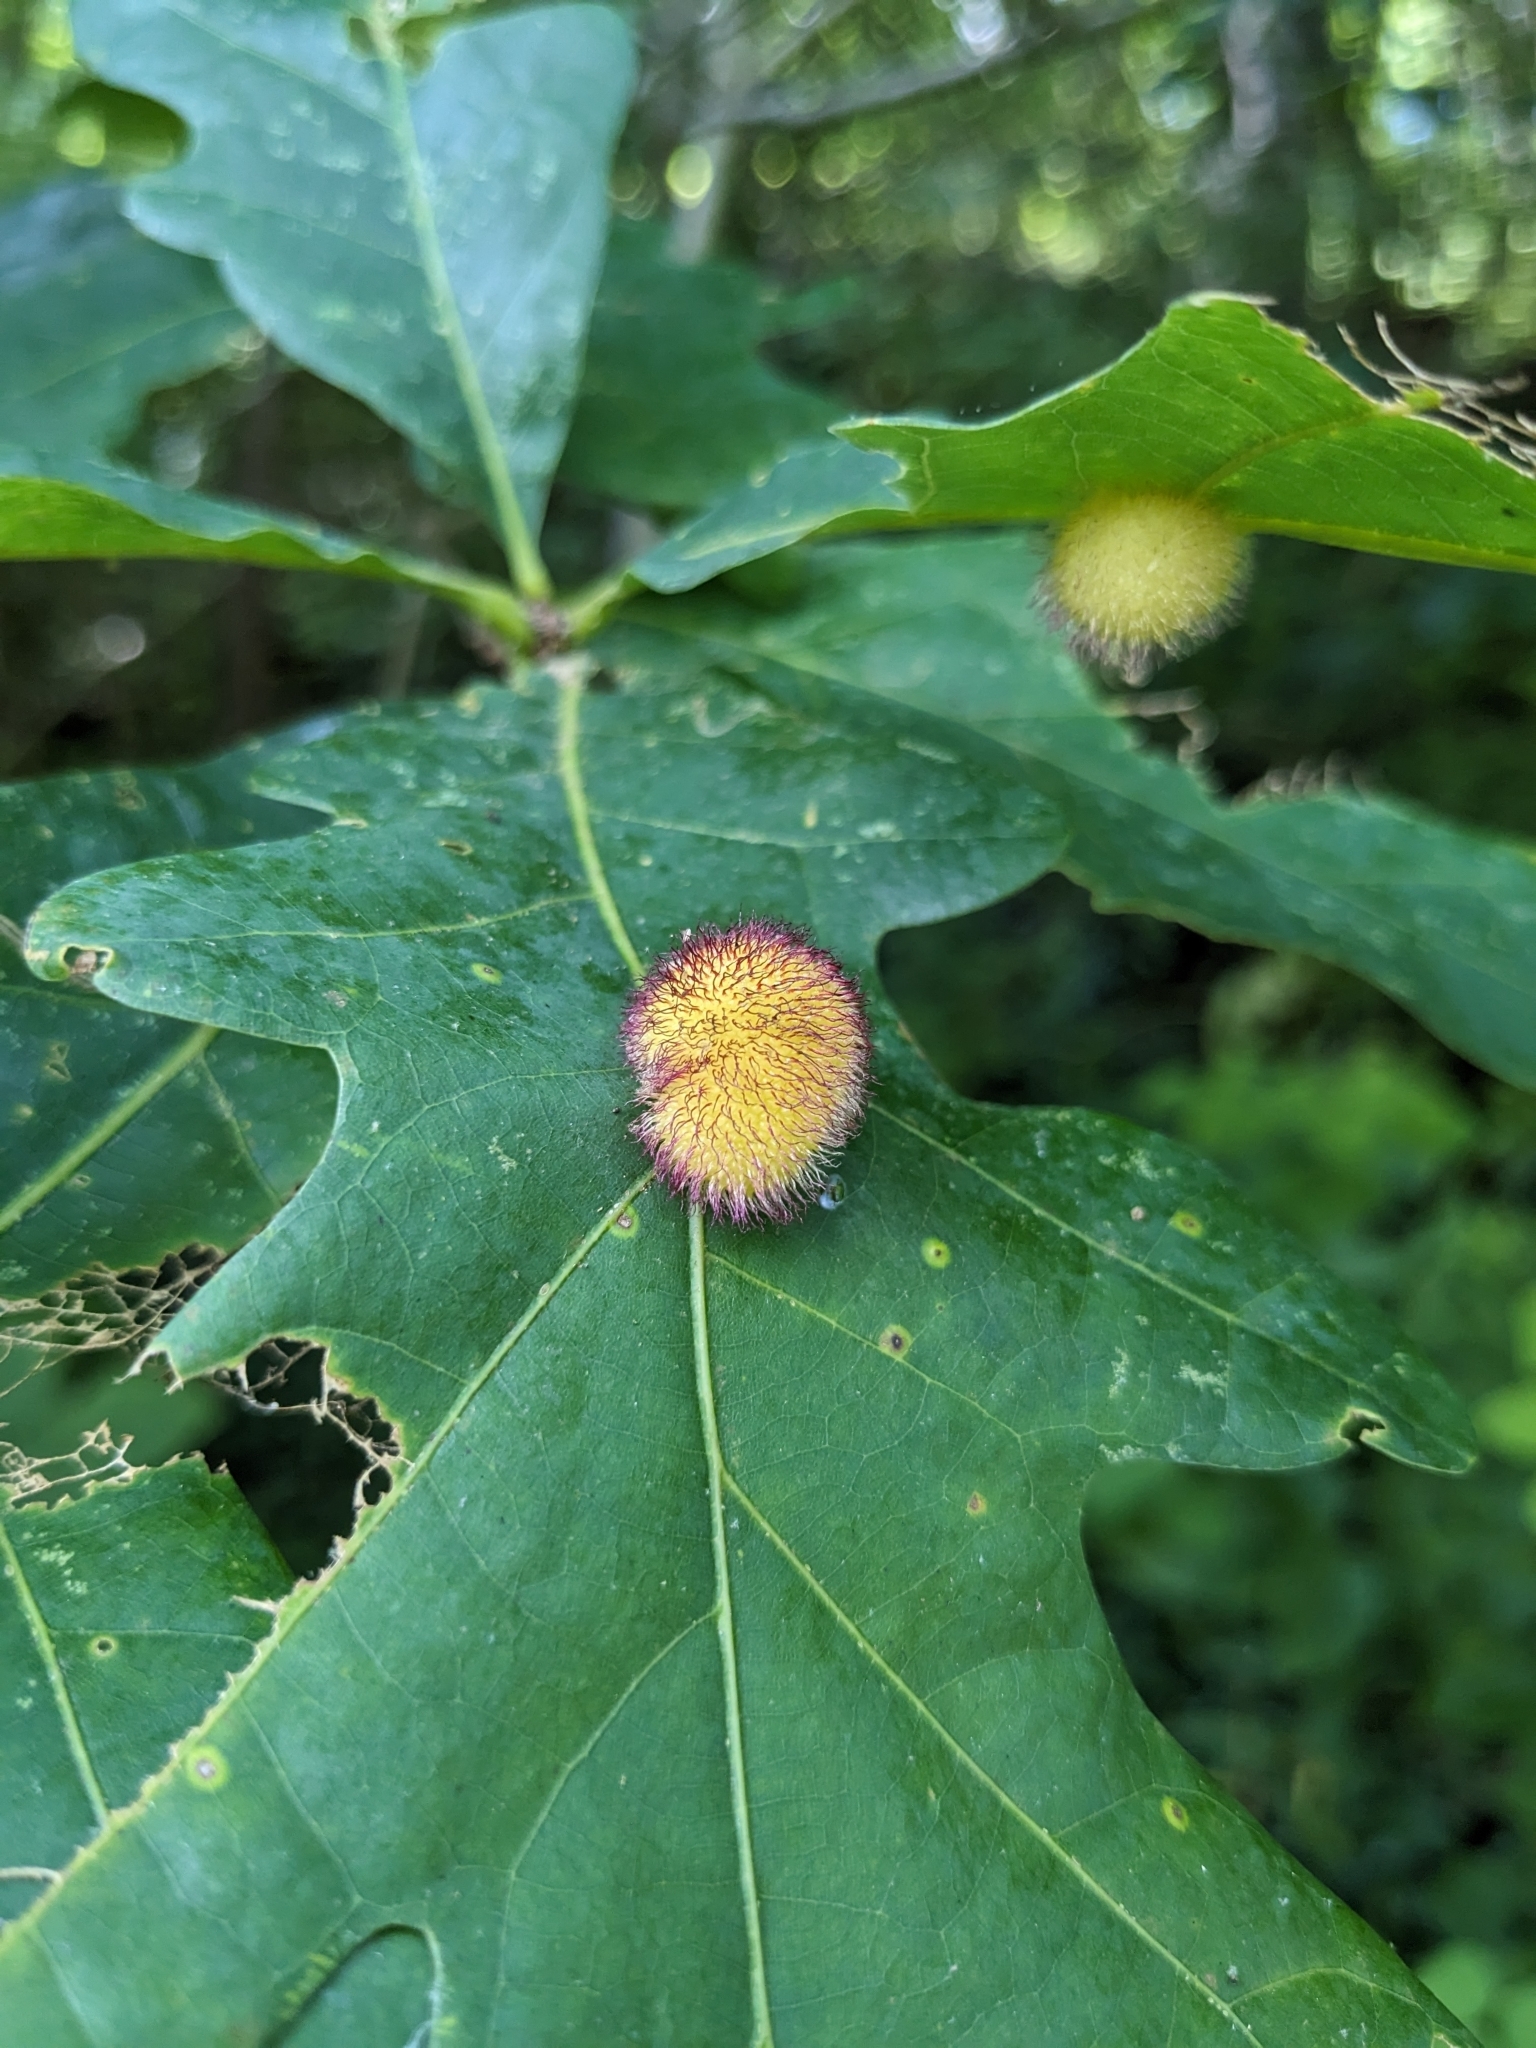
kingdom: Animalia
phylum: Arthropoda
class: Insecta
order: Hymenoptera
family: Cynipidae
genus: Acraspis
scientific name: Acraspis erinacei
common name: Hedgehog gall wasp
